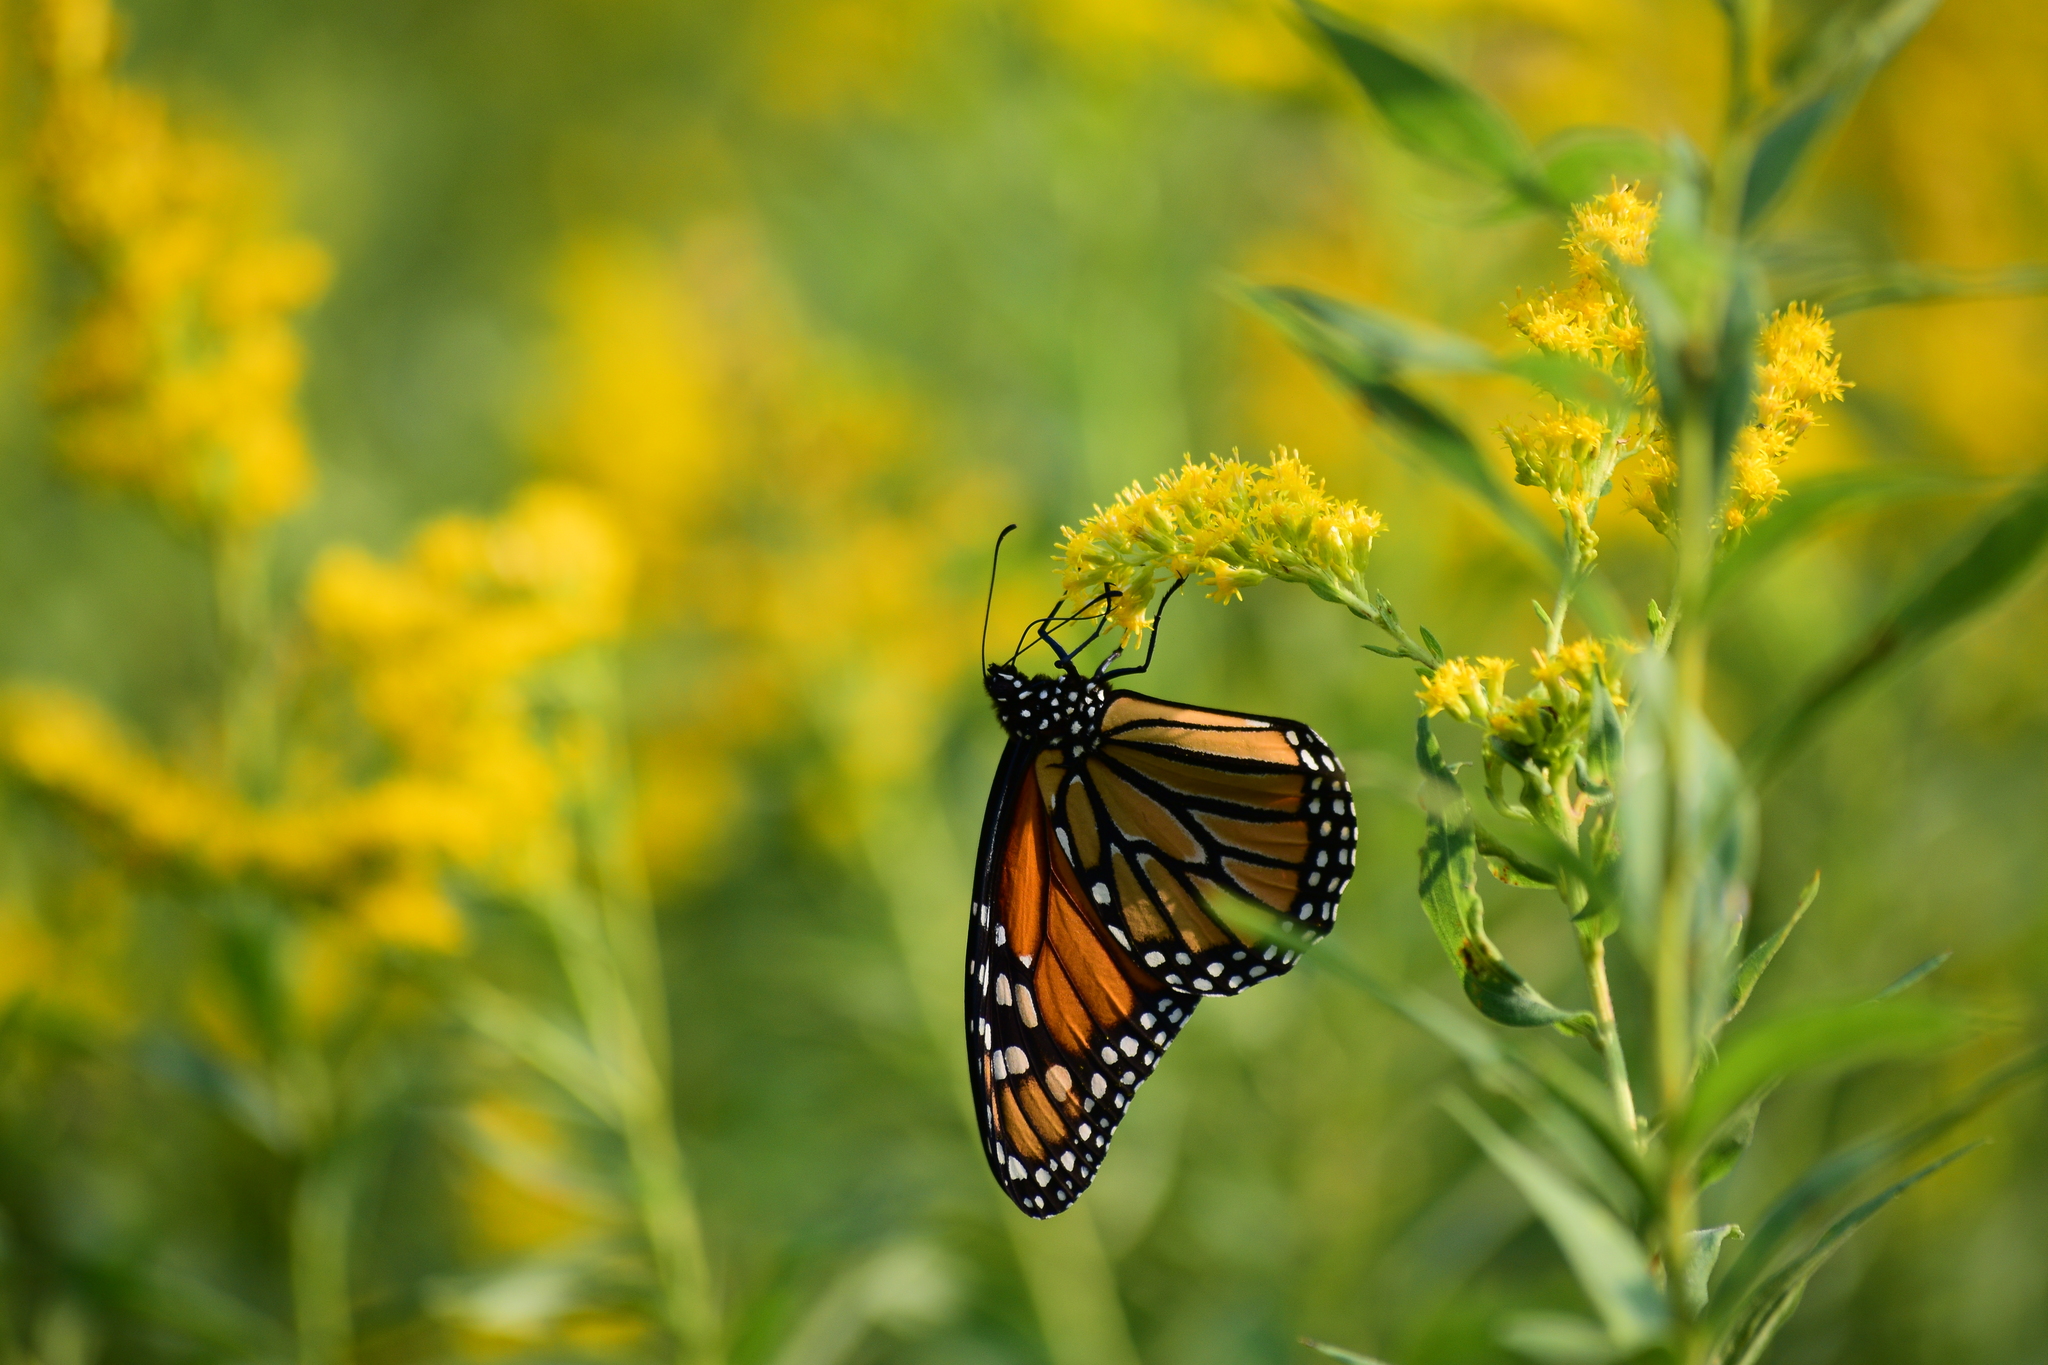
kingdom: Animalia
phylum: Arthropoda
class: Insecta
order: Lepidoptera
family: Nymphalidae
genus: Danaus
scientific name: Danaus plexippus
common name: Monarch
